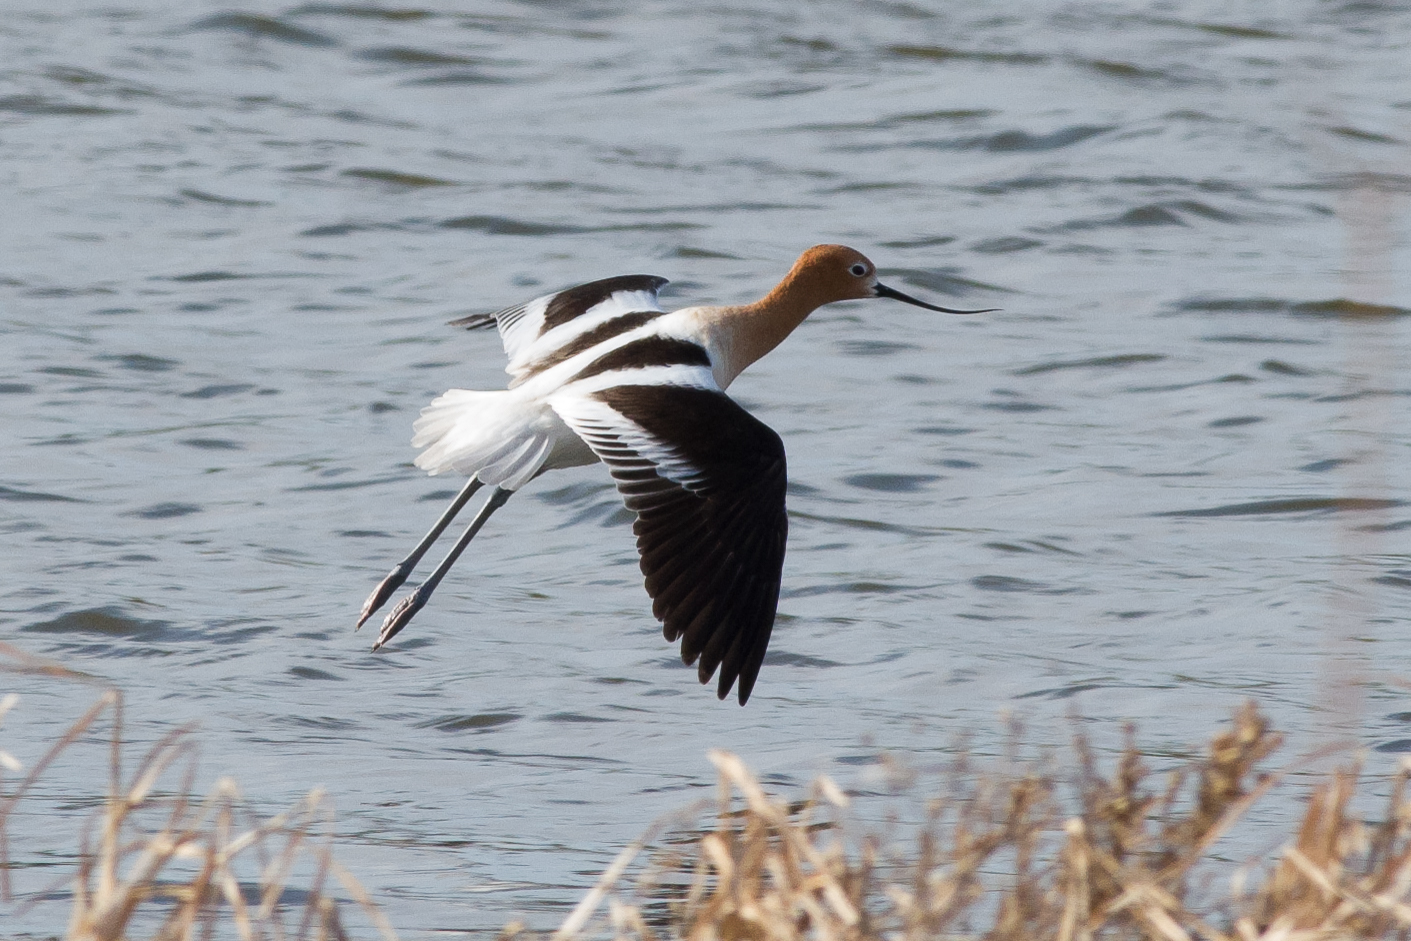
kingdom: Animalia
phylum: Chordata
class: Aves
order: Charadriiformes
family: Recurvirostridae
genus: Recurvirostra
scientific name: Recurvirostra americana
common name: American avocet
